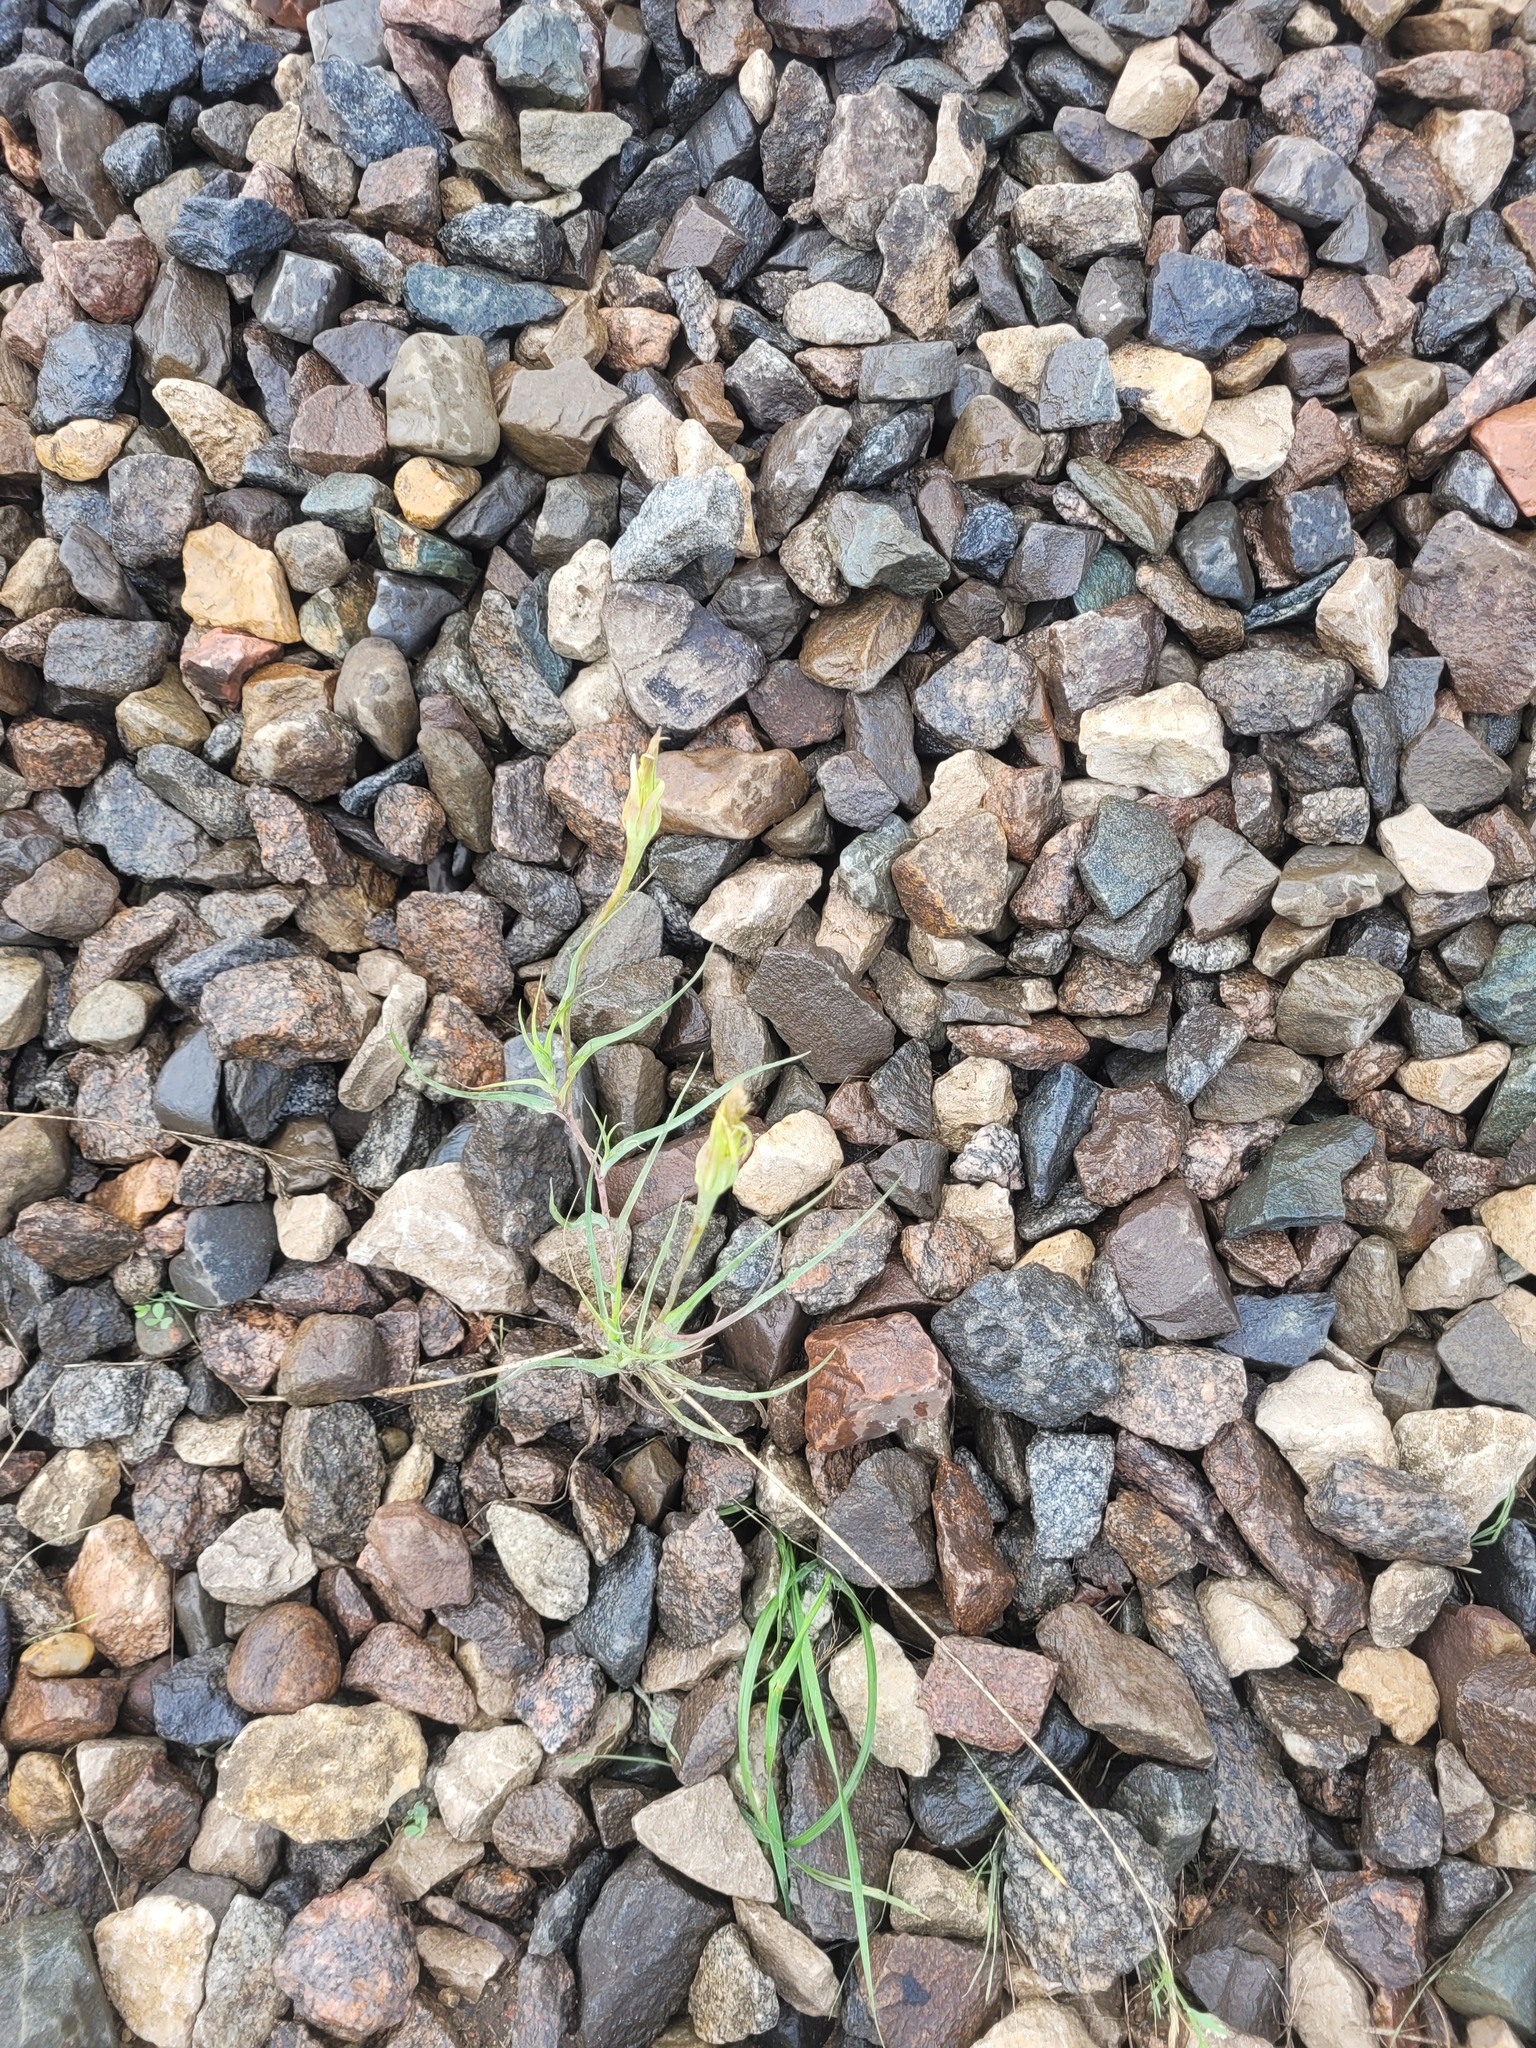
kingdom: Plantae
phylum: Tracheophyta
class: Magnoliopsida
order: Asterales
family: Asteraceae
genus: Tragopogon
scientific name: Tragopogon dubius
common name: Yellow salsify
